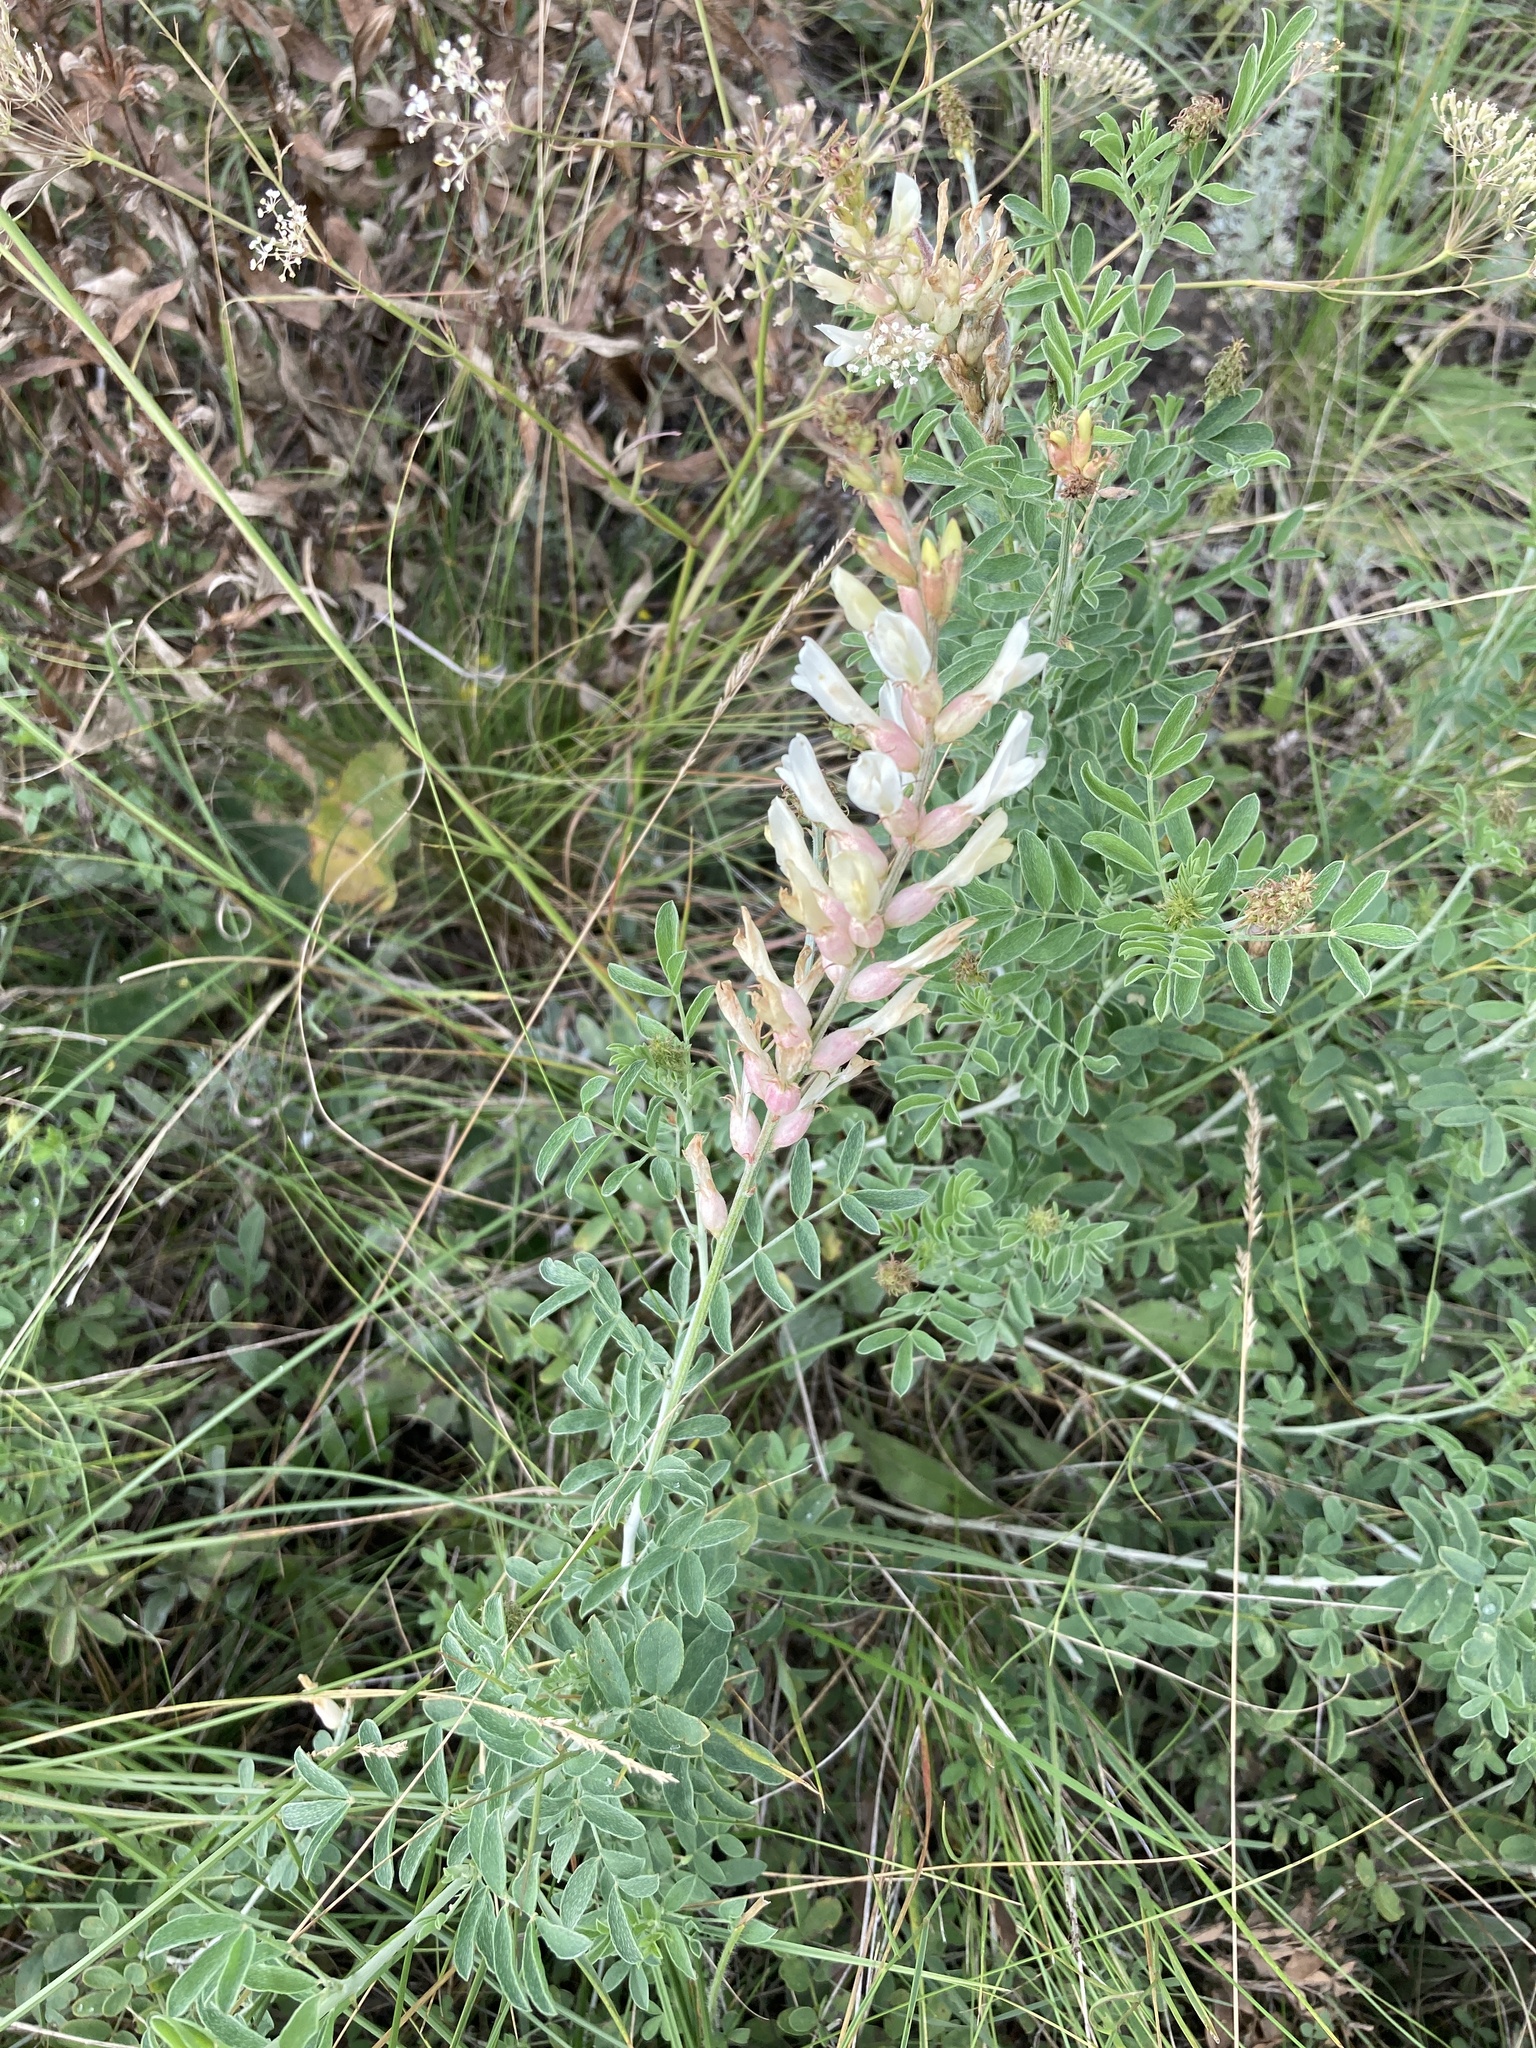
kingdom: Plantae
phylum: Tracheophyta
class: Magnoliopsida
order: Fabales
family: Fabaceae
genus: Astragalus
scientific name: Astragalus albicaulis
